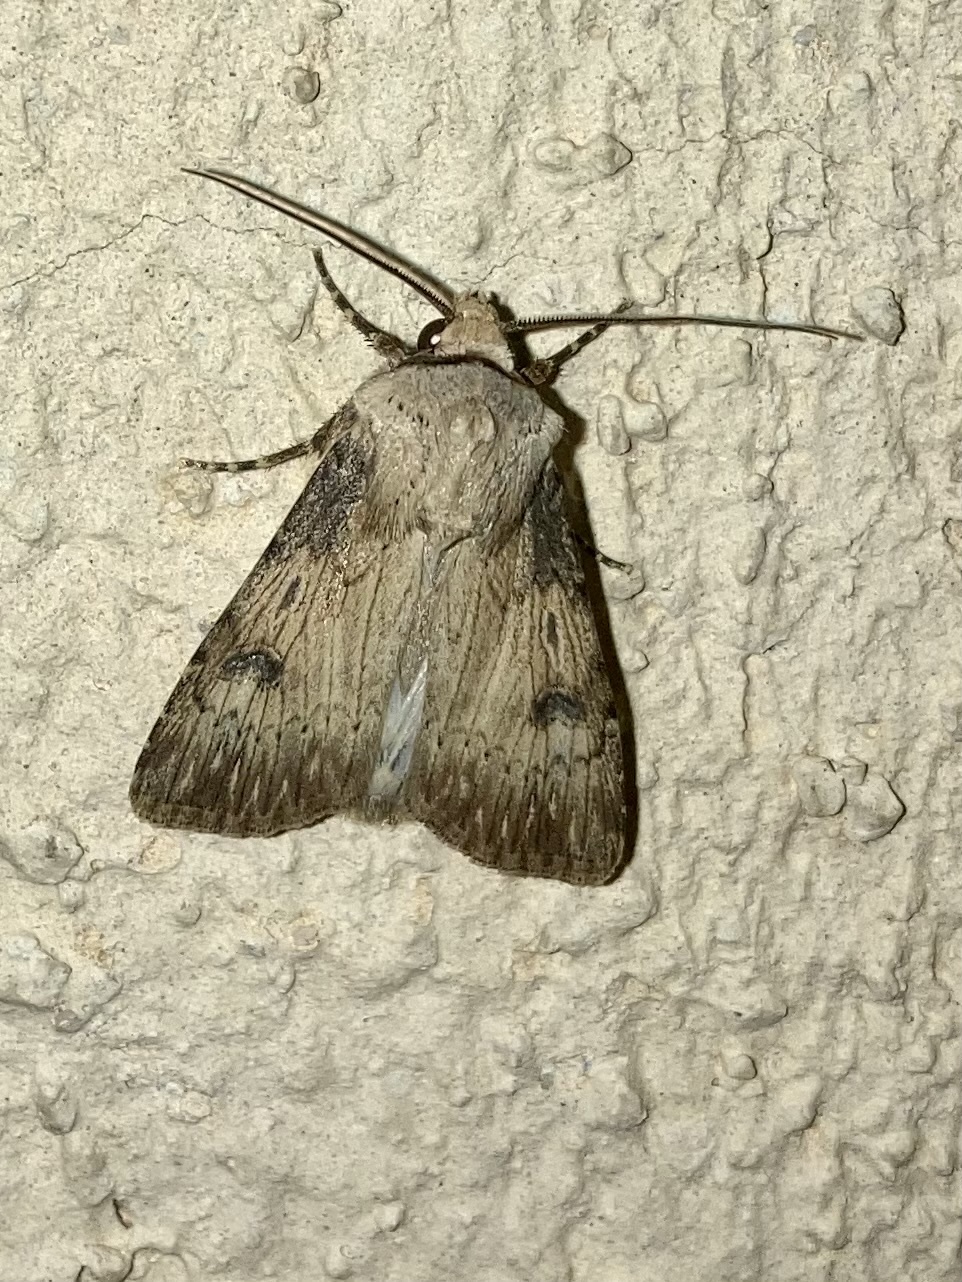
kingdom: Animalia
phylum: Arthropoda
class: Insecta
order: Lepidoptera
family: Noctuidae
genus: Agrotis
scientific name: Agrotis puta
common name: Shuttle-shaped dart
